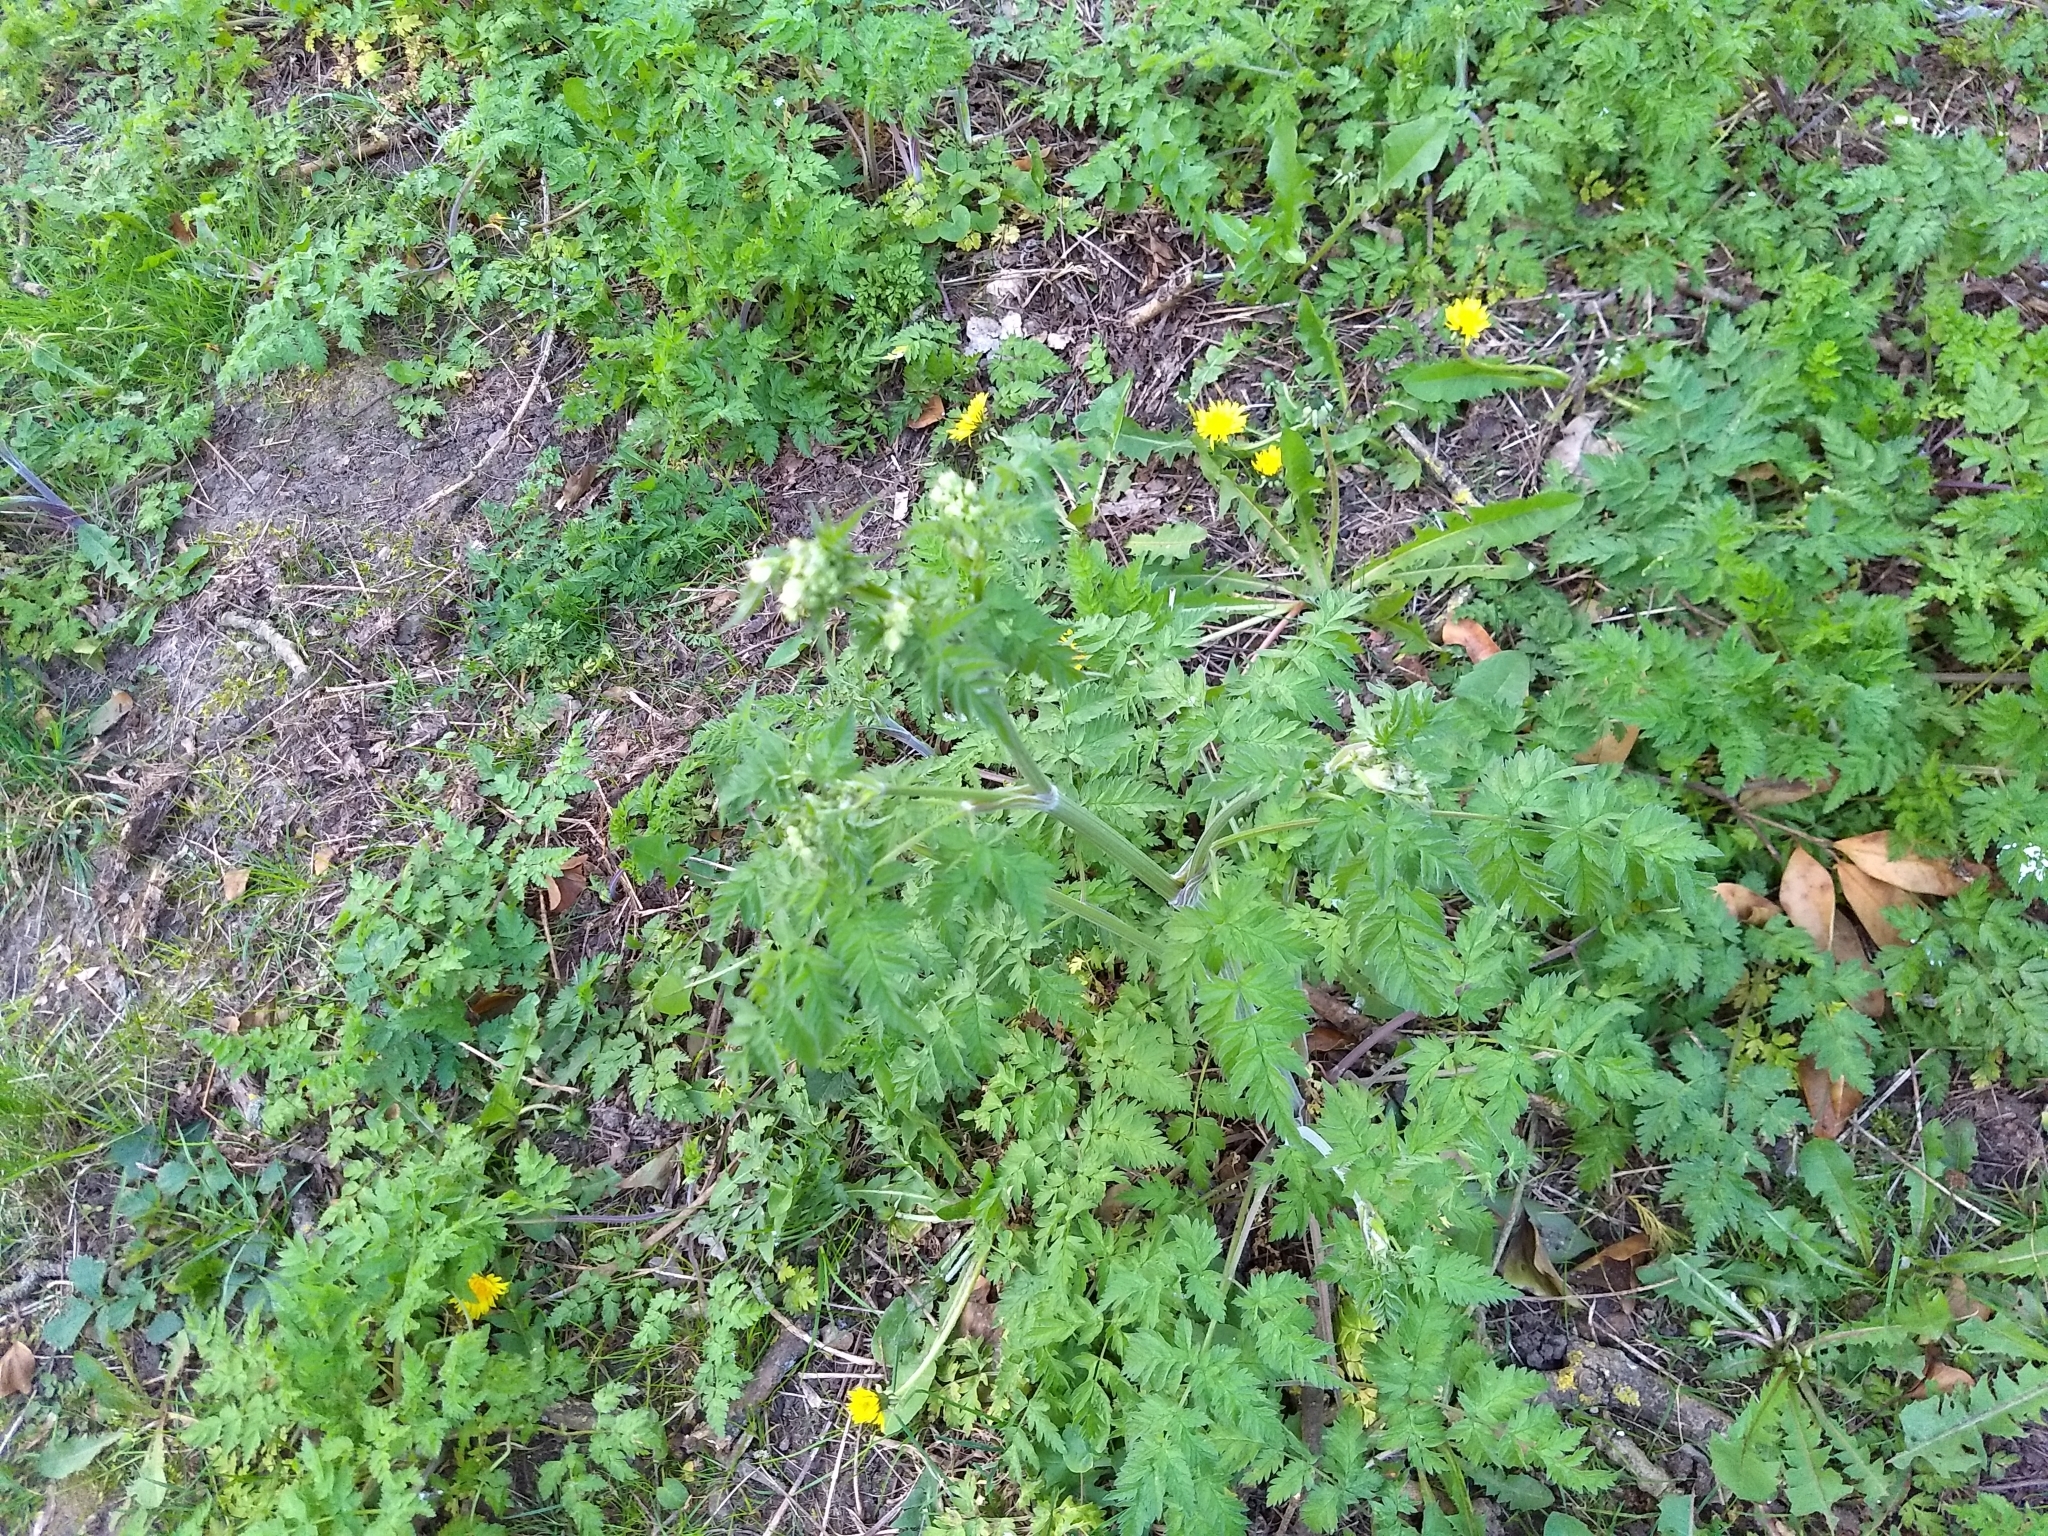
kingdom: Plantae
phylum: Tracheophyta
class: Magnoliopsida
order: Apiales
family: Apiaceae
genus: Anthriscus
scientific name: Anthriscus sylvestris
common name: Cow parsley
